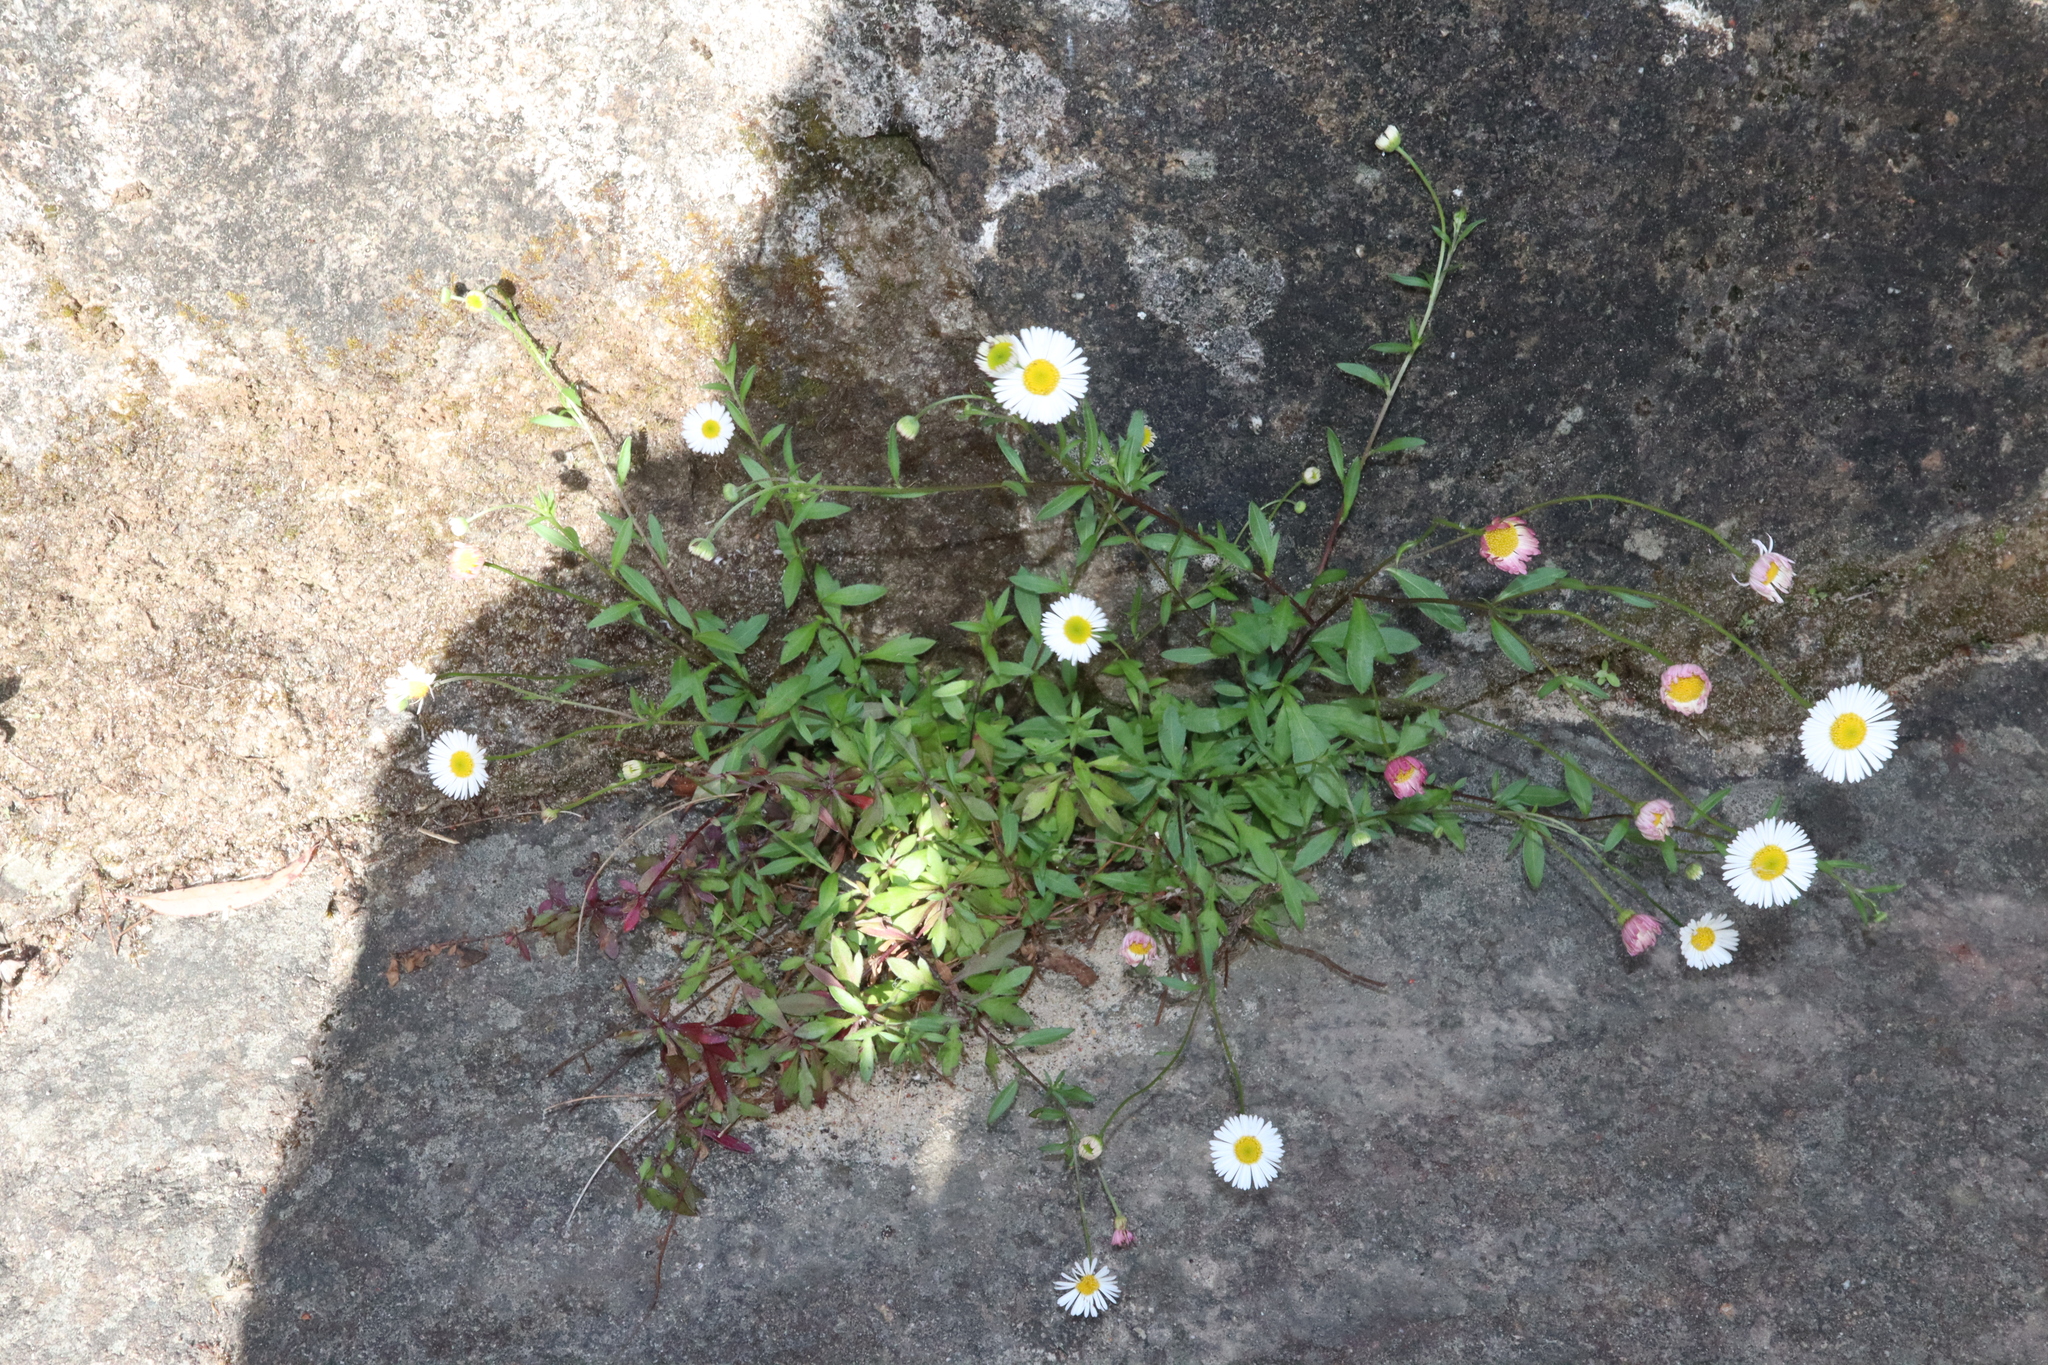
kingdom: Plantae
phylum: Tracheophyta
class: Magnoliopsida
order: Asterales
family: Asteraceae
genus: Erigeron
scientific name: Erigeron karvinskianus
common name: Mexican fleabane
